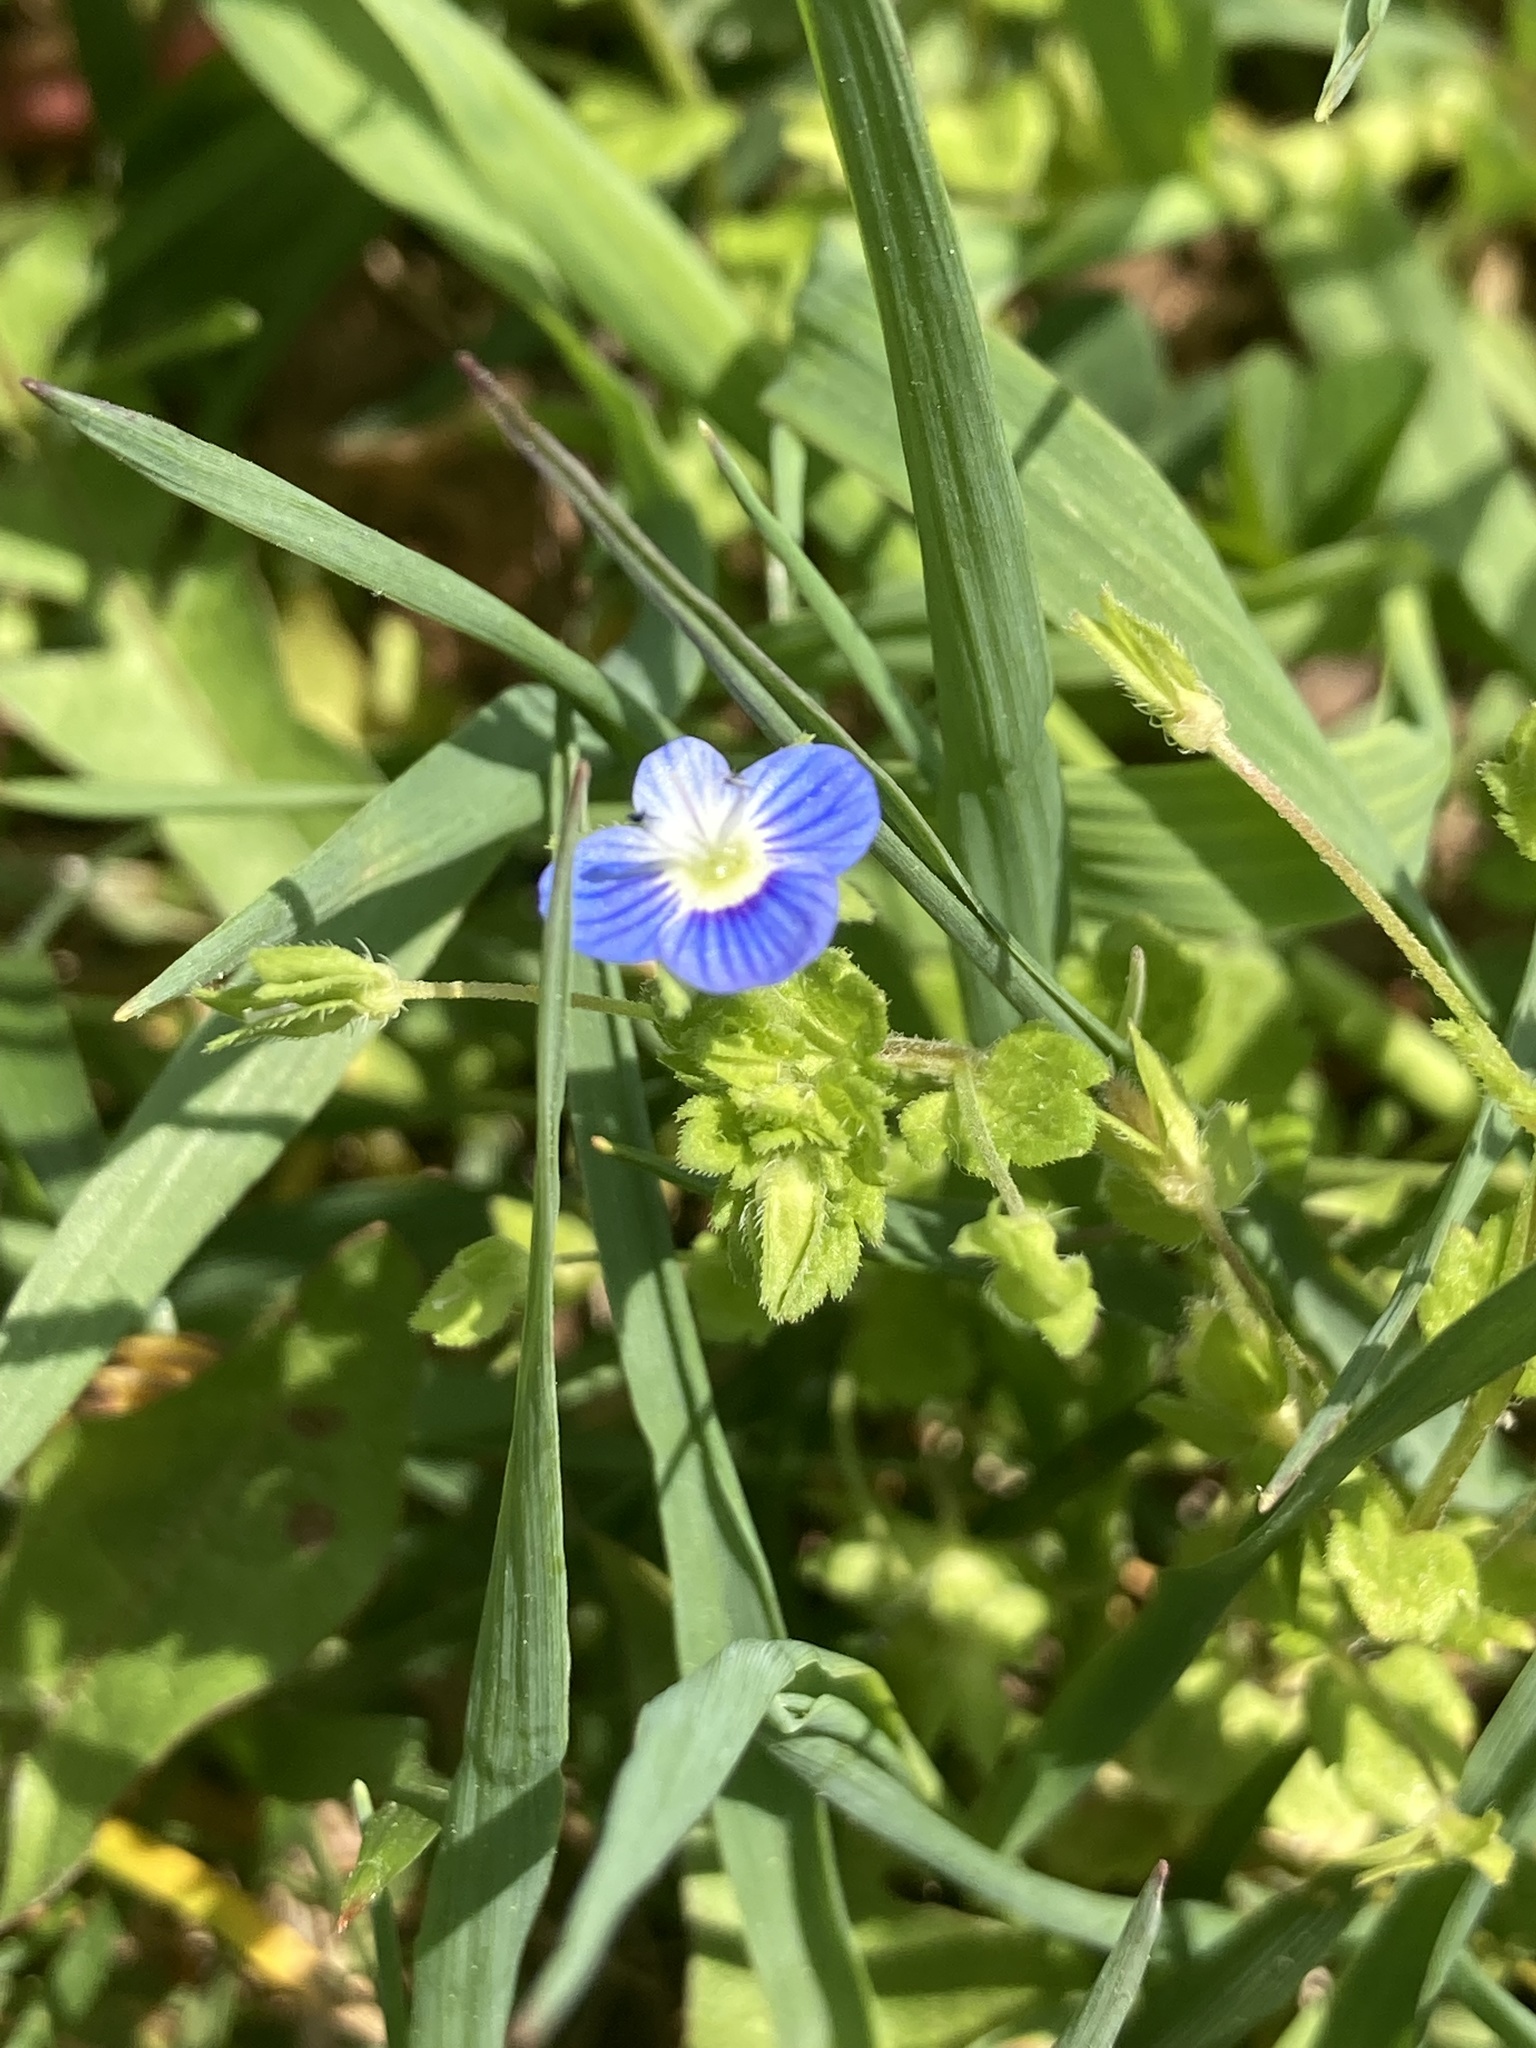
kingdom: Plantae
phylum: Tracheophyta
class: Magnoliopsida
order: Lamiales
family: Plantaginaceae
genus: Veronica
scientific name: Veronica persica
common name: Common field-speedwell
